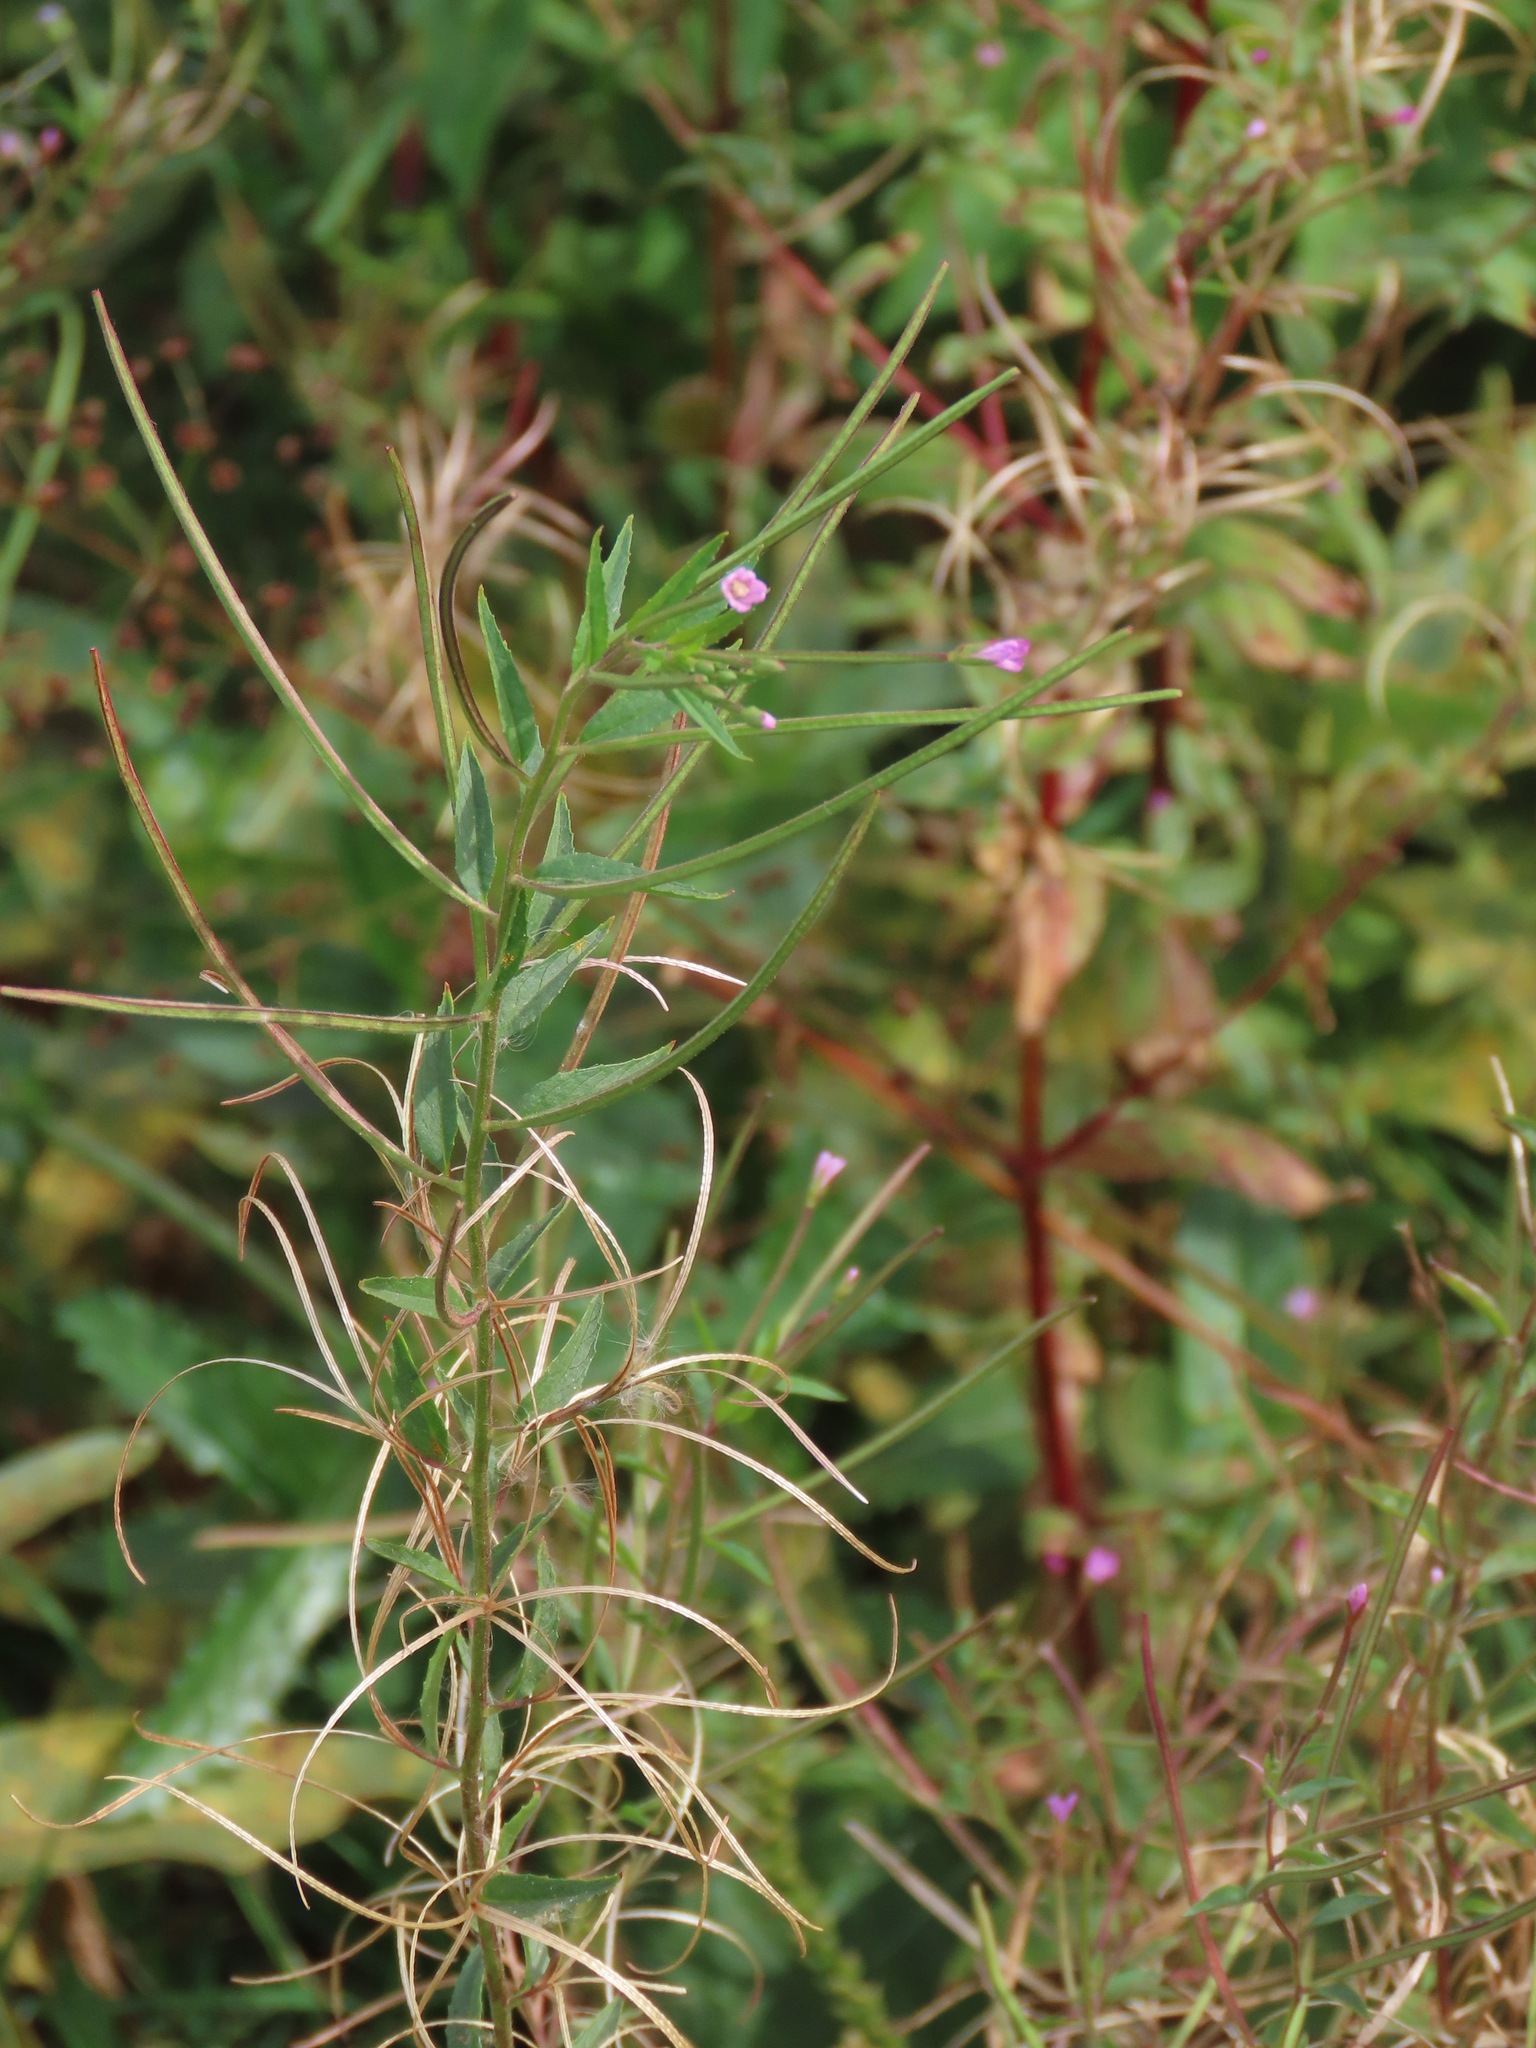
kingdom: Plantae
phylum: Tracheophyta
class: Magnoliopsida
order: Myrtales
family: Onagraceae
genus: Epilobium
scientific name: Epilobium ciliatum
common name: American willowherb
